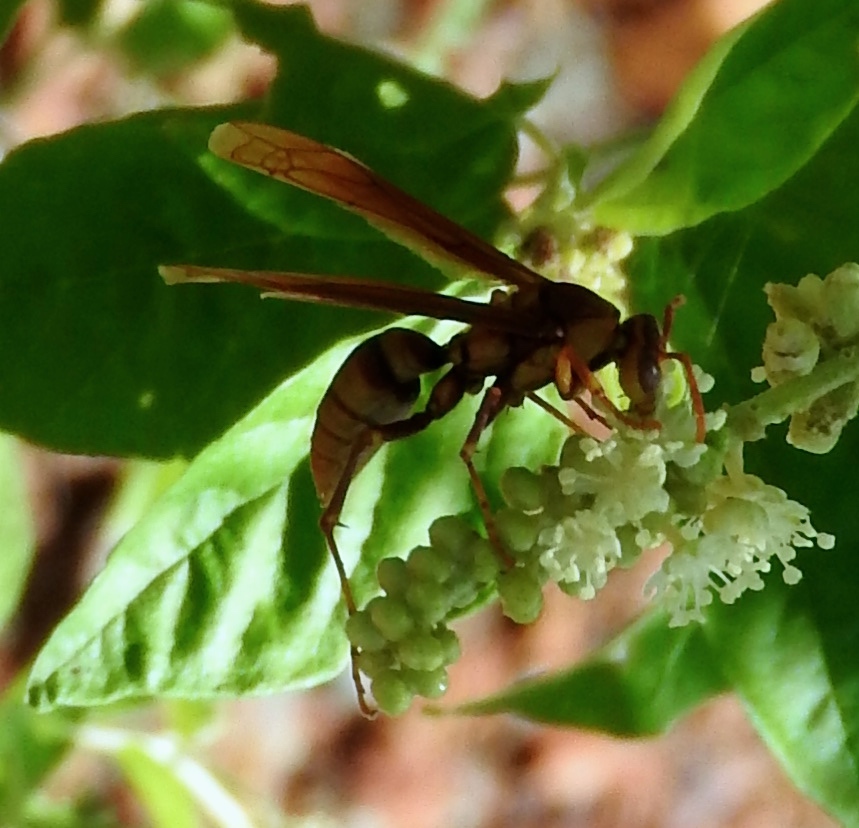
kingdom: Animalia
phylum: Arthropoda
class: Insecta
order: Hymenoptera
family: Eumenidae
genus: Polistes
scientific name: Polistes carnifex
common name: Paper wasp
